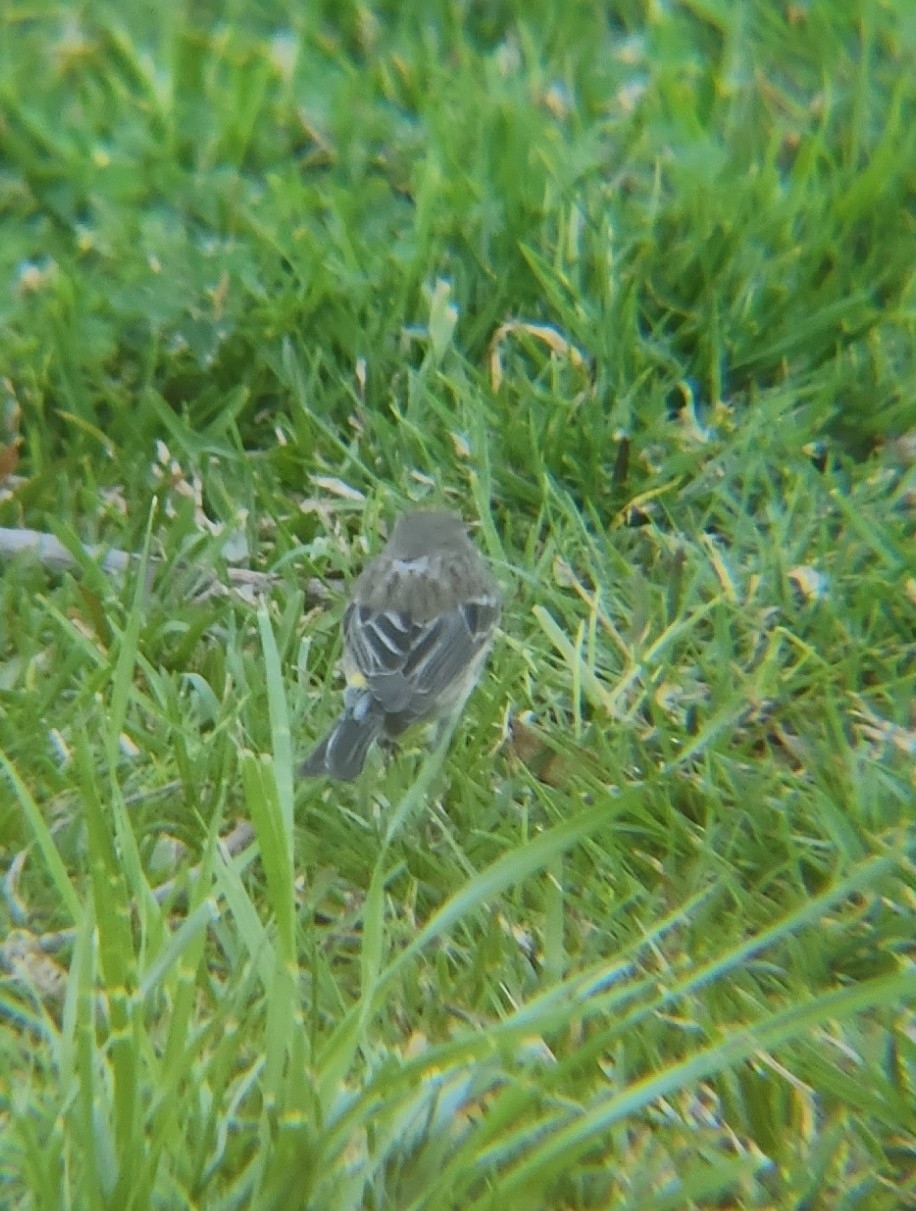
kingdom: Animalia
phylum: Chordata
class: Aves
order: Passeriformes
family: Parulidae
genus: Setophaga
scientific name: Setophaga coronata
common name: Myrtle warbler
